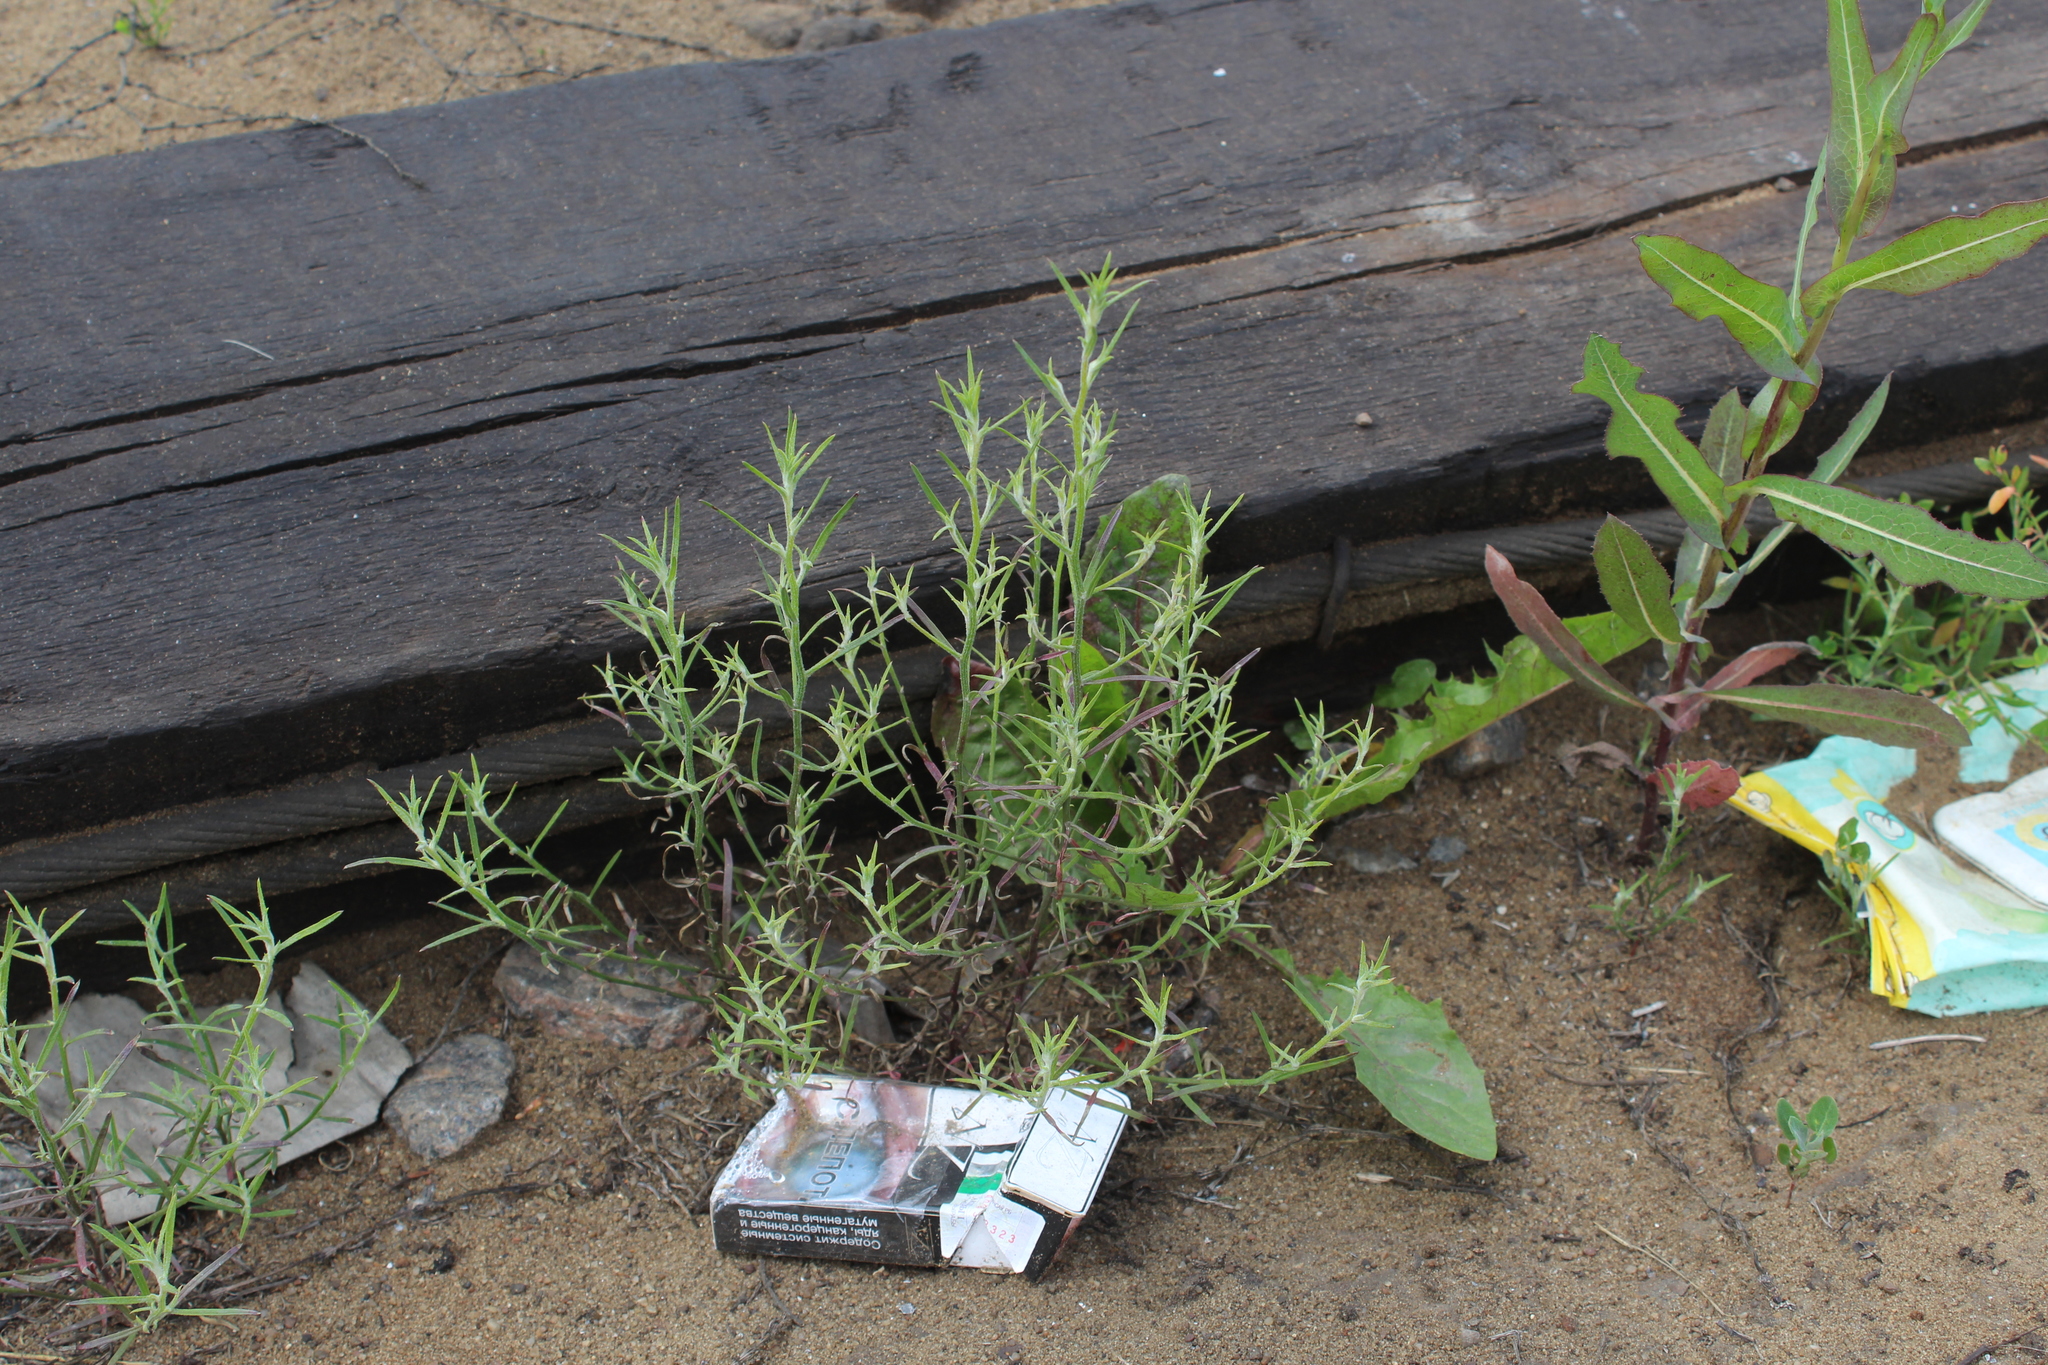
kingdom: Plantae
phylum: Tracheophyta
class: Magnoliopsida
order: Caryophyllales
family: Amaranthaceae
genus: Corispermum
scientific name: Corispermum
